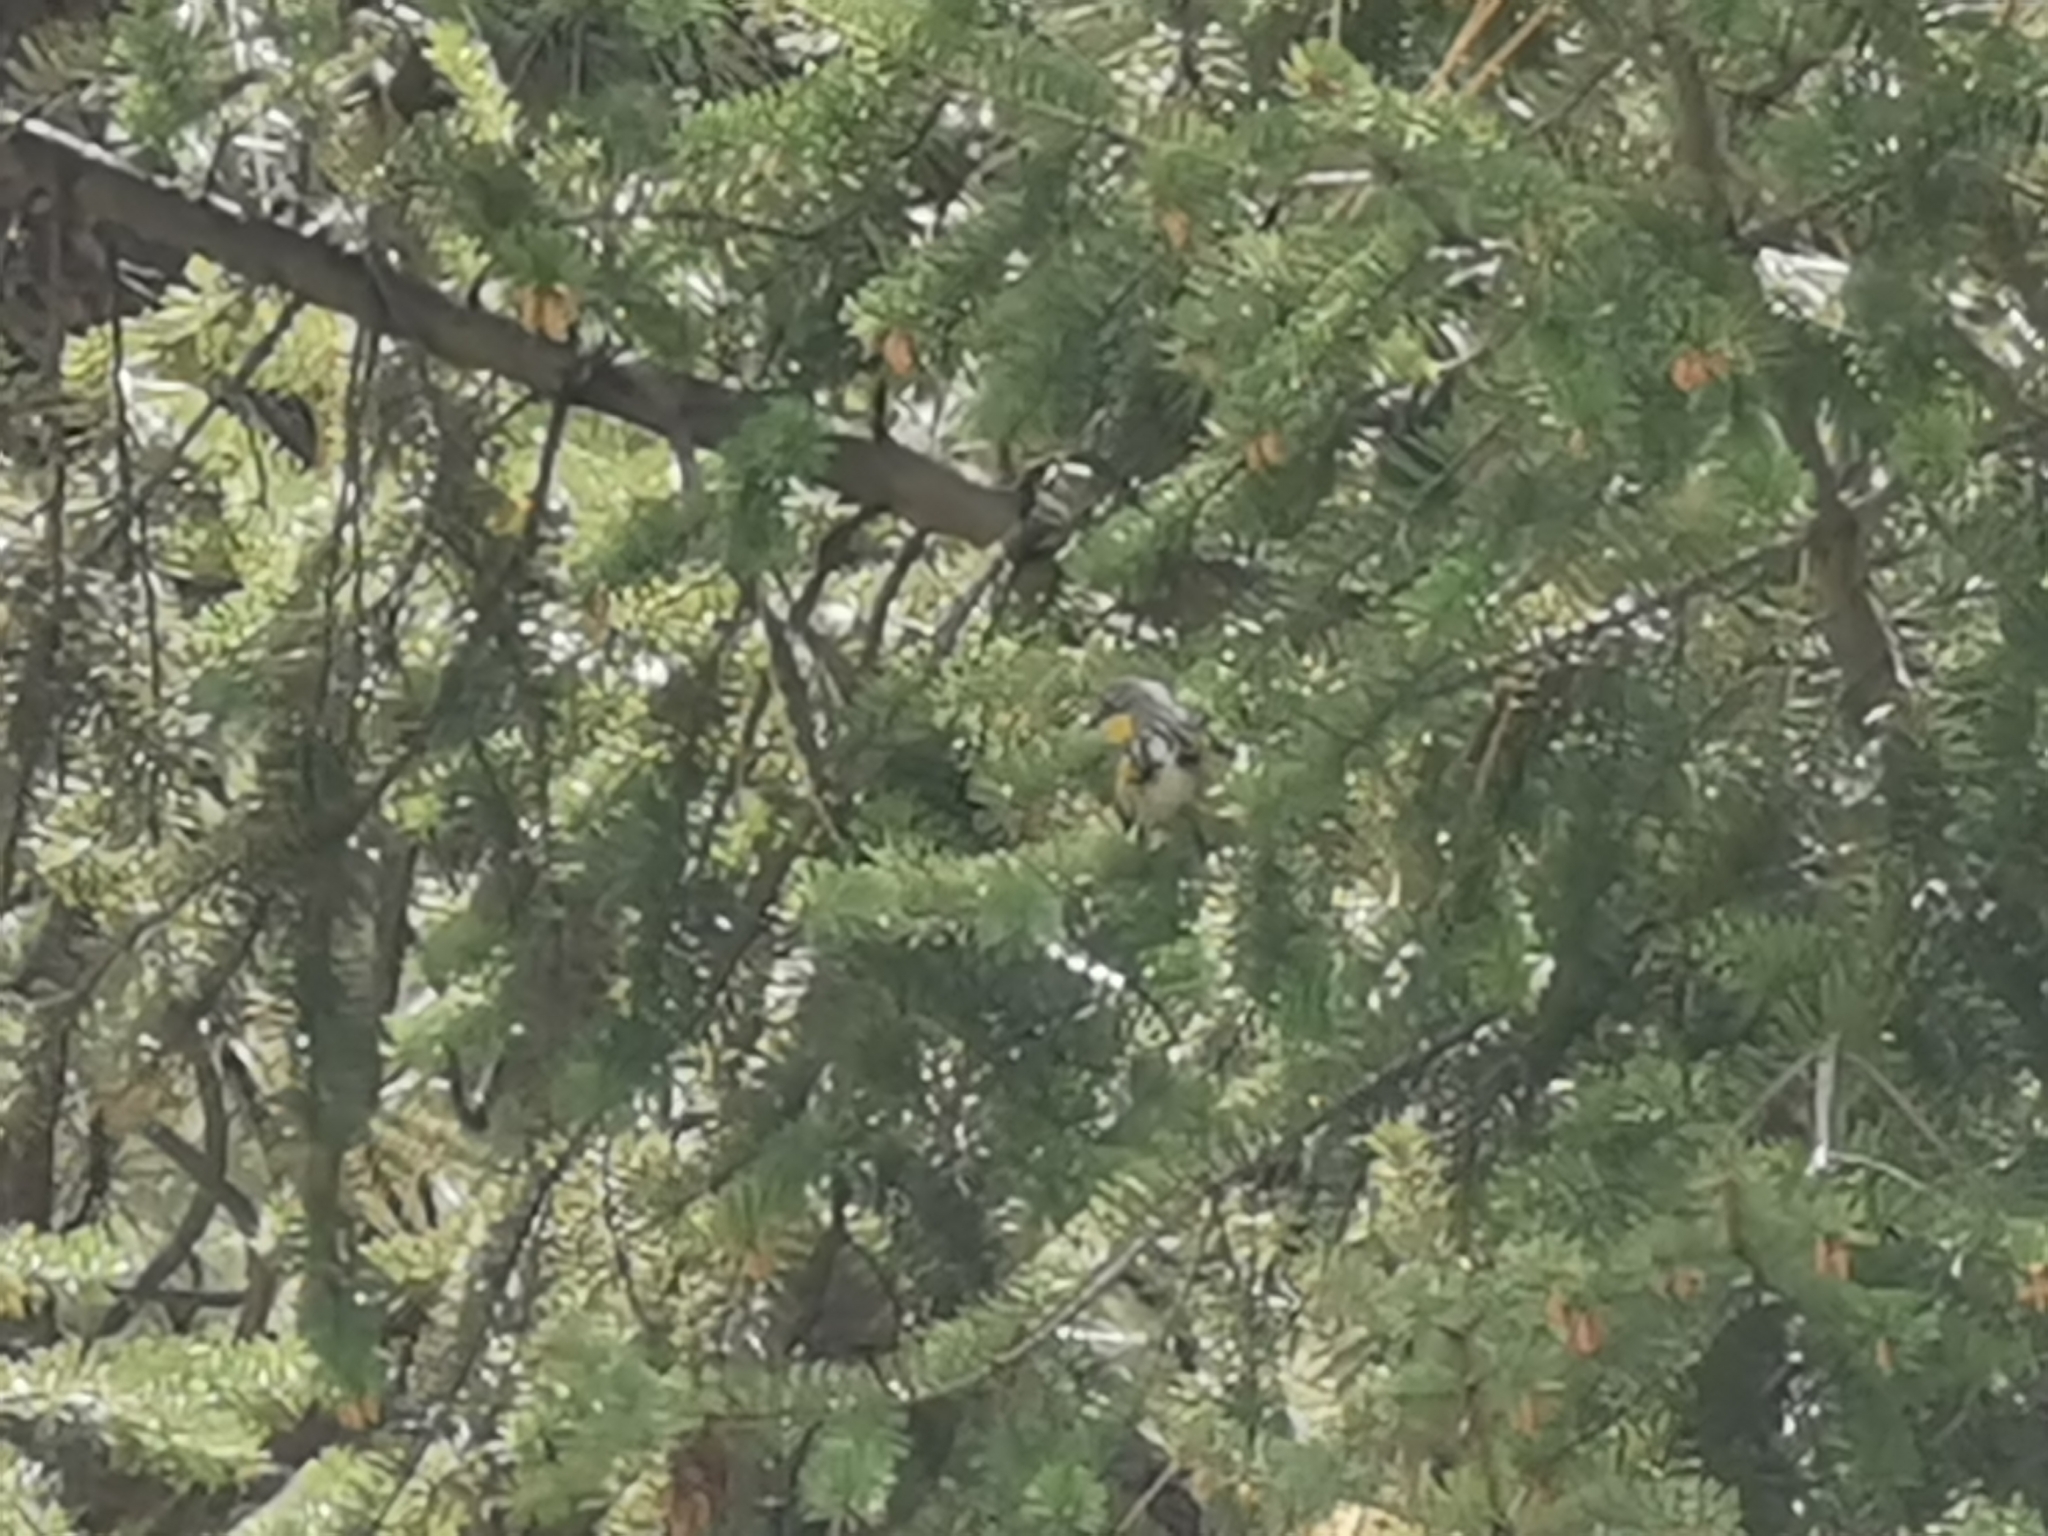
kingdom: Animalia
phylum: Chordata
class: Aves
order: Passeriformes
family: Parulidae
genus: Setophaga
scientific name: Setophaga auduboni
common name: Audubon's warbler
